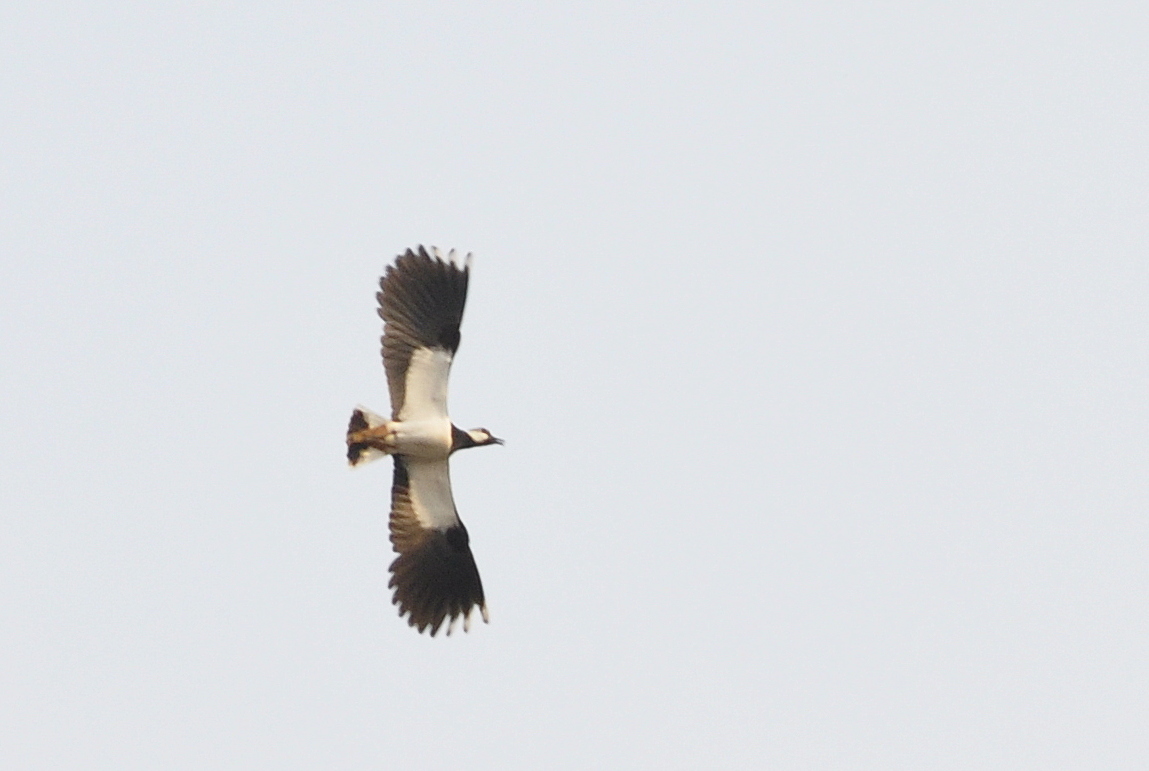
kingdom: Animalia
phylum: Chordata
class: Aves
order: Charadriiformes
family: Charadriidae
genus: Vanellus
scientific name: Vanellus vanellus
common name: Northern lapwing
